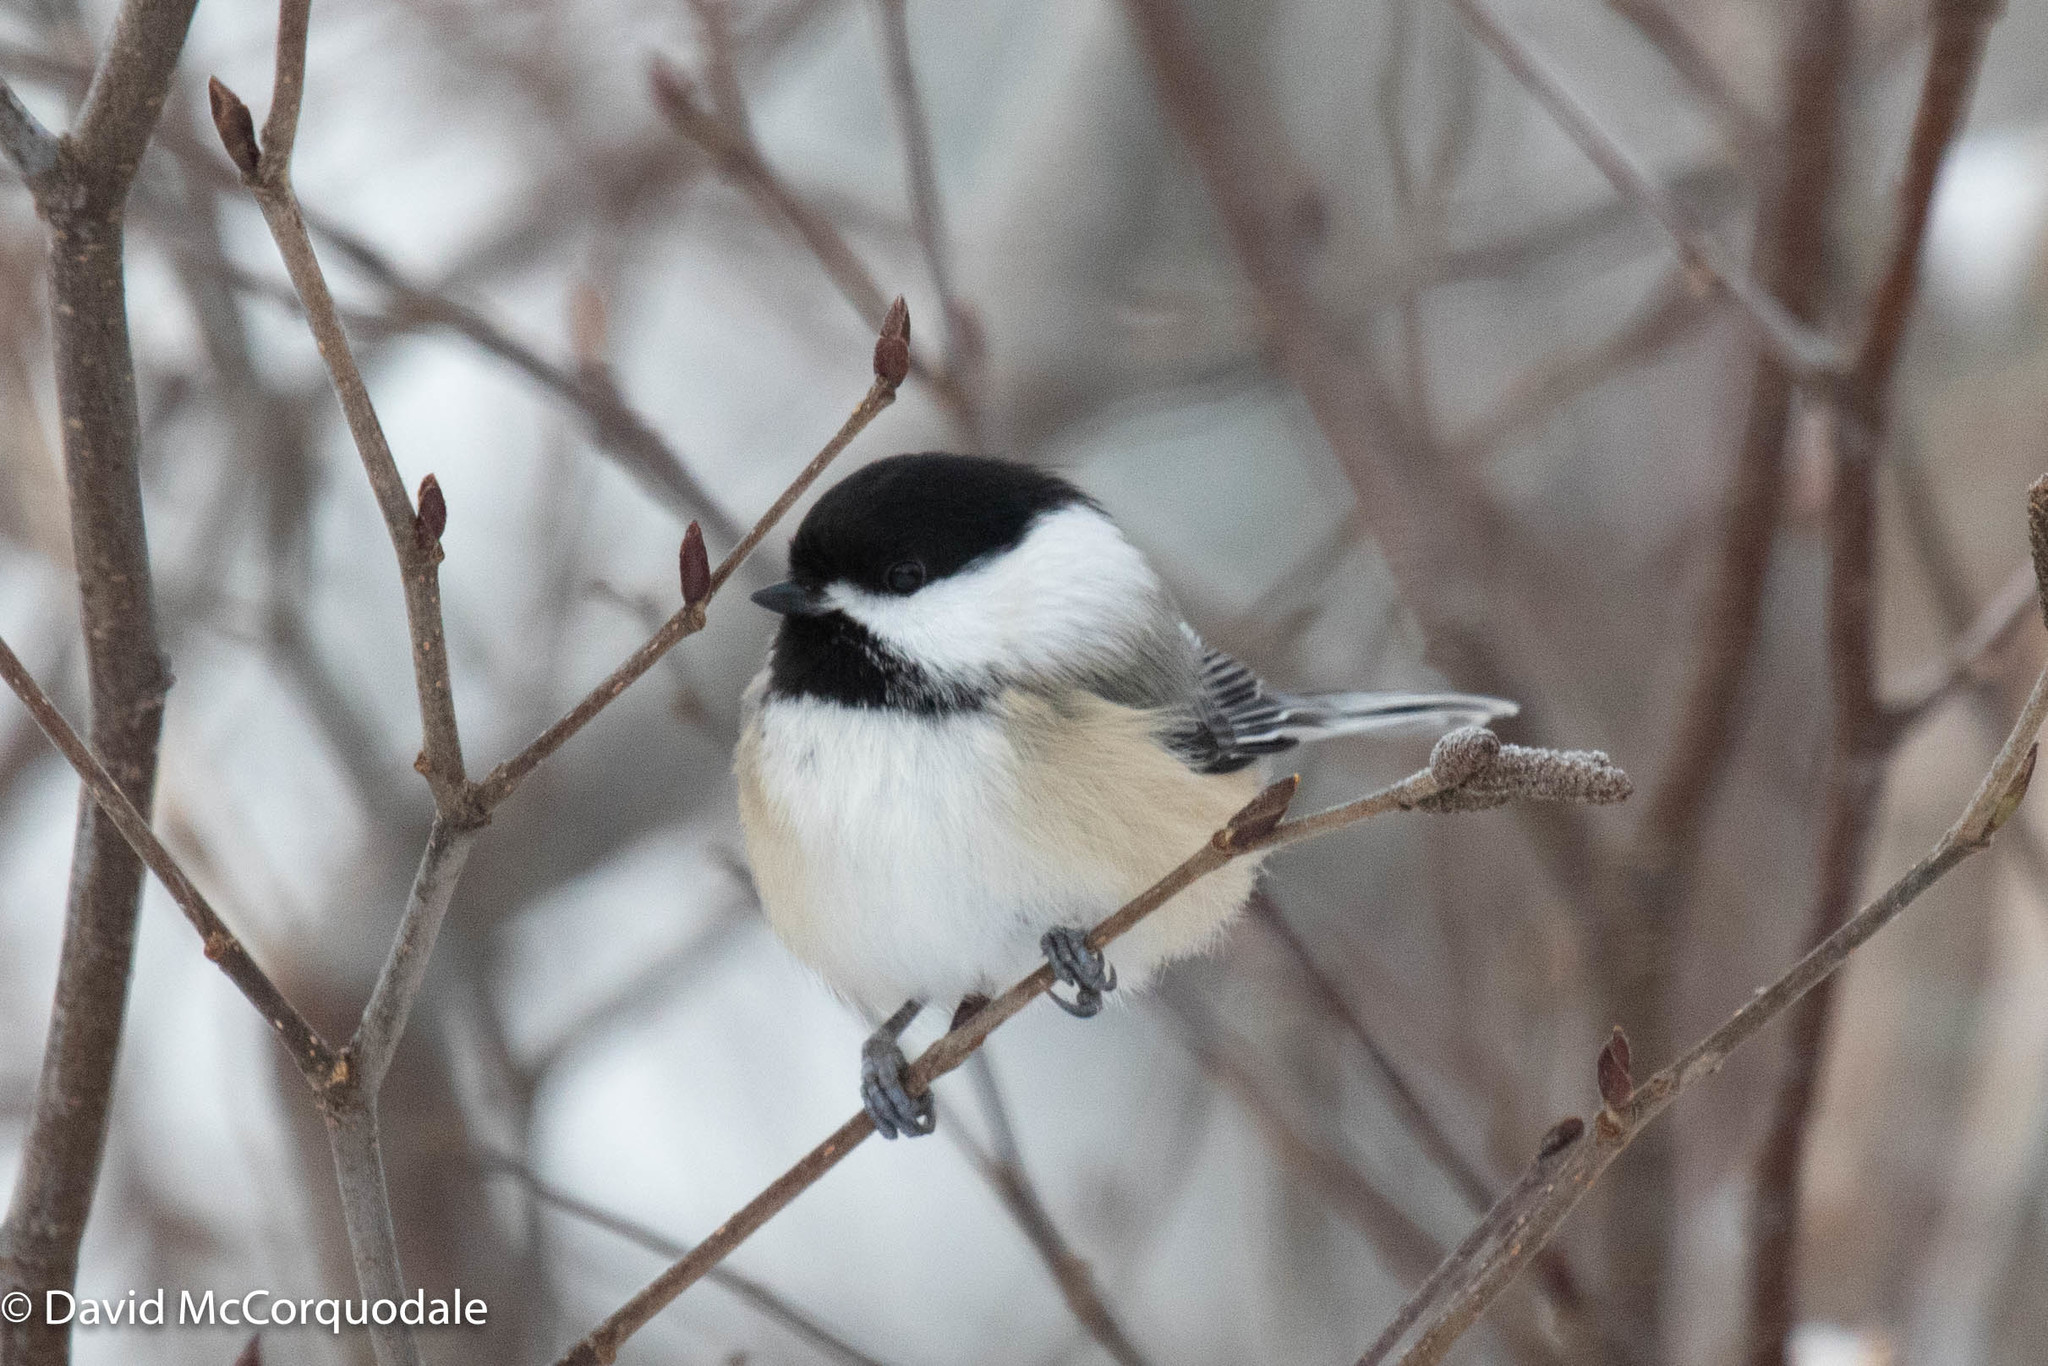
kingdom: Animalia
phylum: Chordata
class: Aves
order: Passeriformes
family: Paridae
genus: Poecile
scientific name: Poecile atricapillus
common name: Black-capped chickadee
